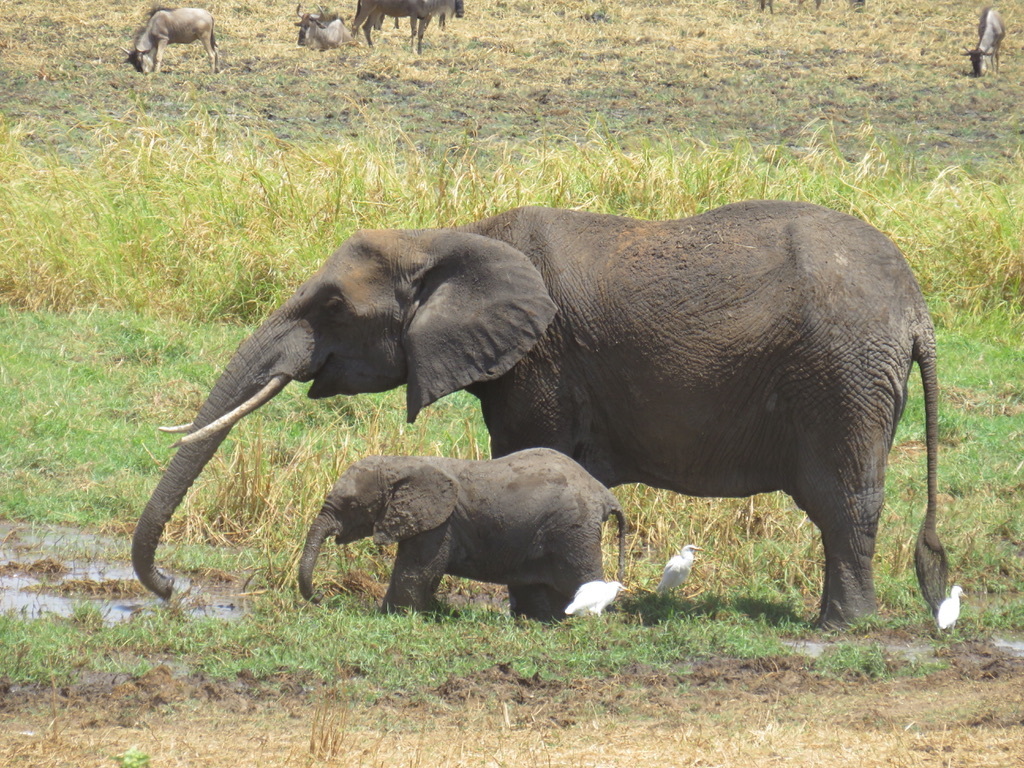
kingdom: Animalia
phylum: Chordata
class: Aves
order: Pelecaniformes
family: Ardeidae
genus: Bubulcus
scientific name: Bubulcus ibis
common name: Cattle egret
